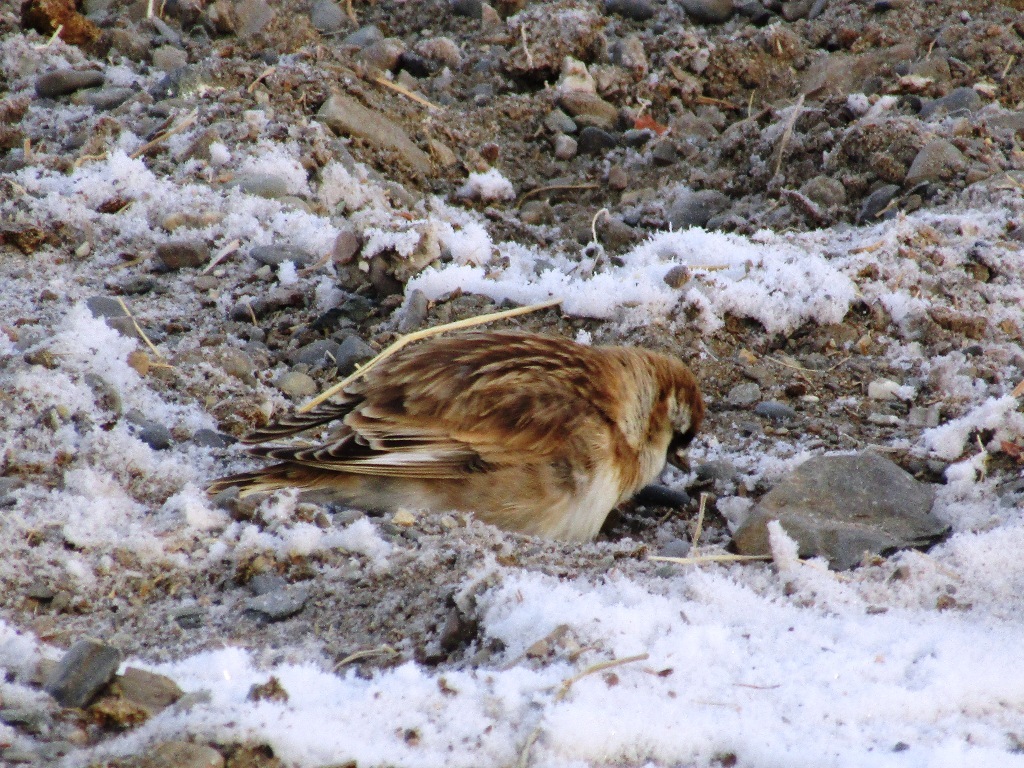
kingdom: Animalia
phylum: Chordata
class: Aves
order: Passeriformes
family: Passeridae
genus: Pyrgilauda
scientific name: Pyrgilauda davidiana
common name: Pere david's snowfinch
